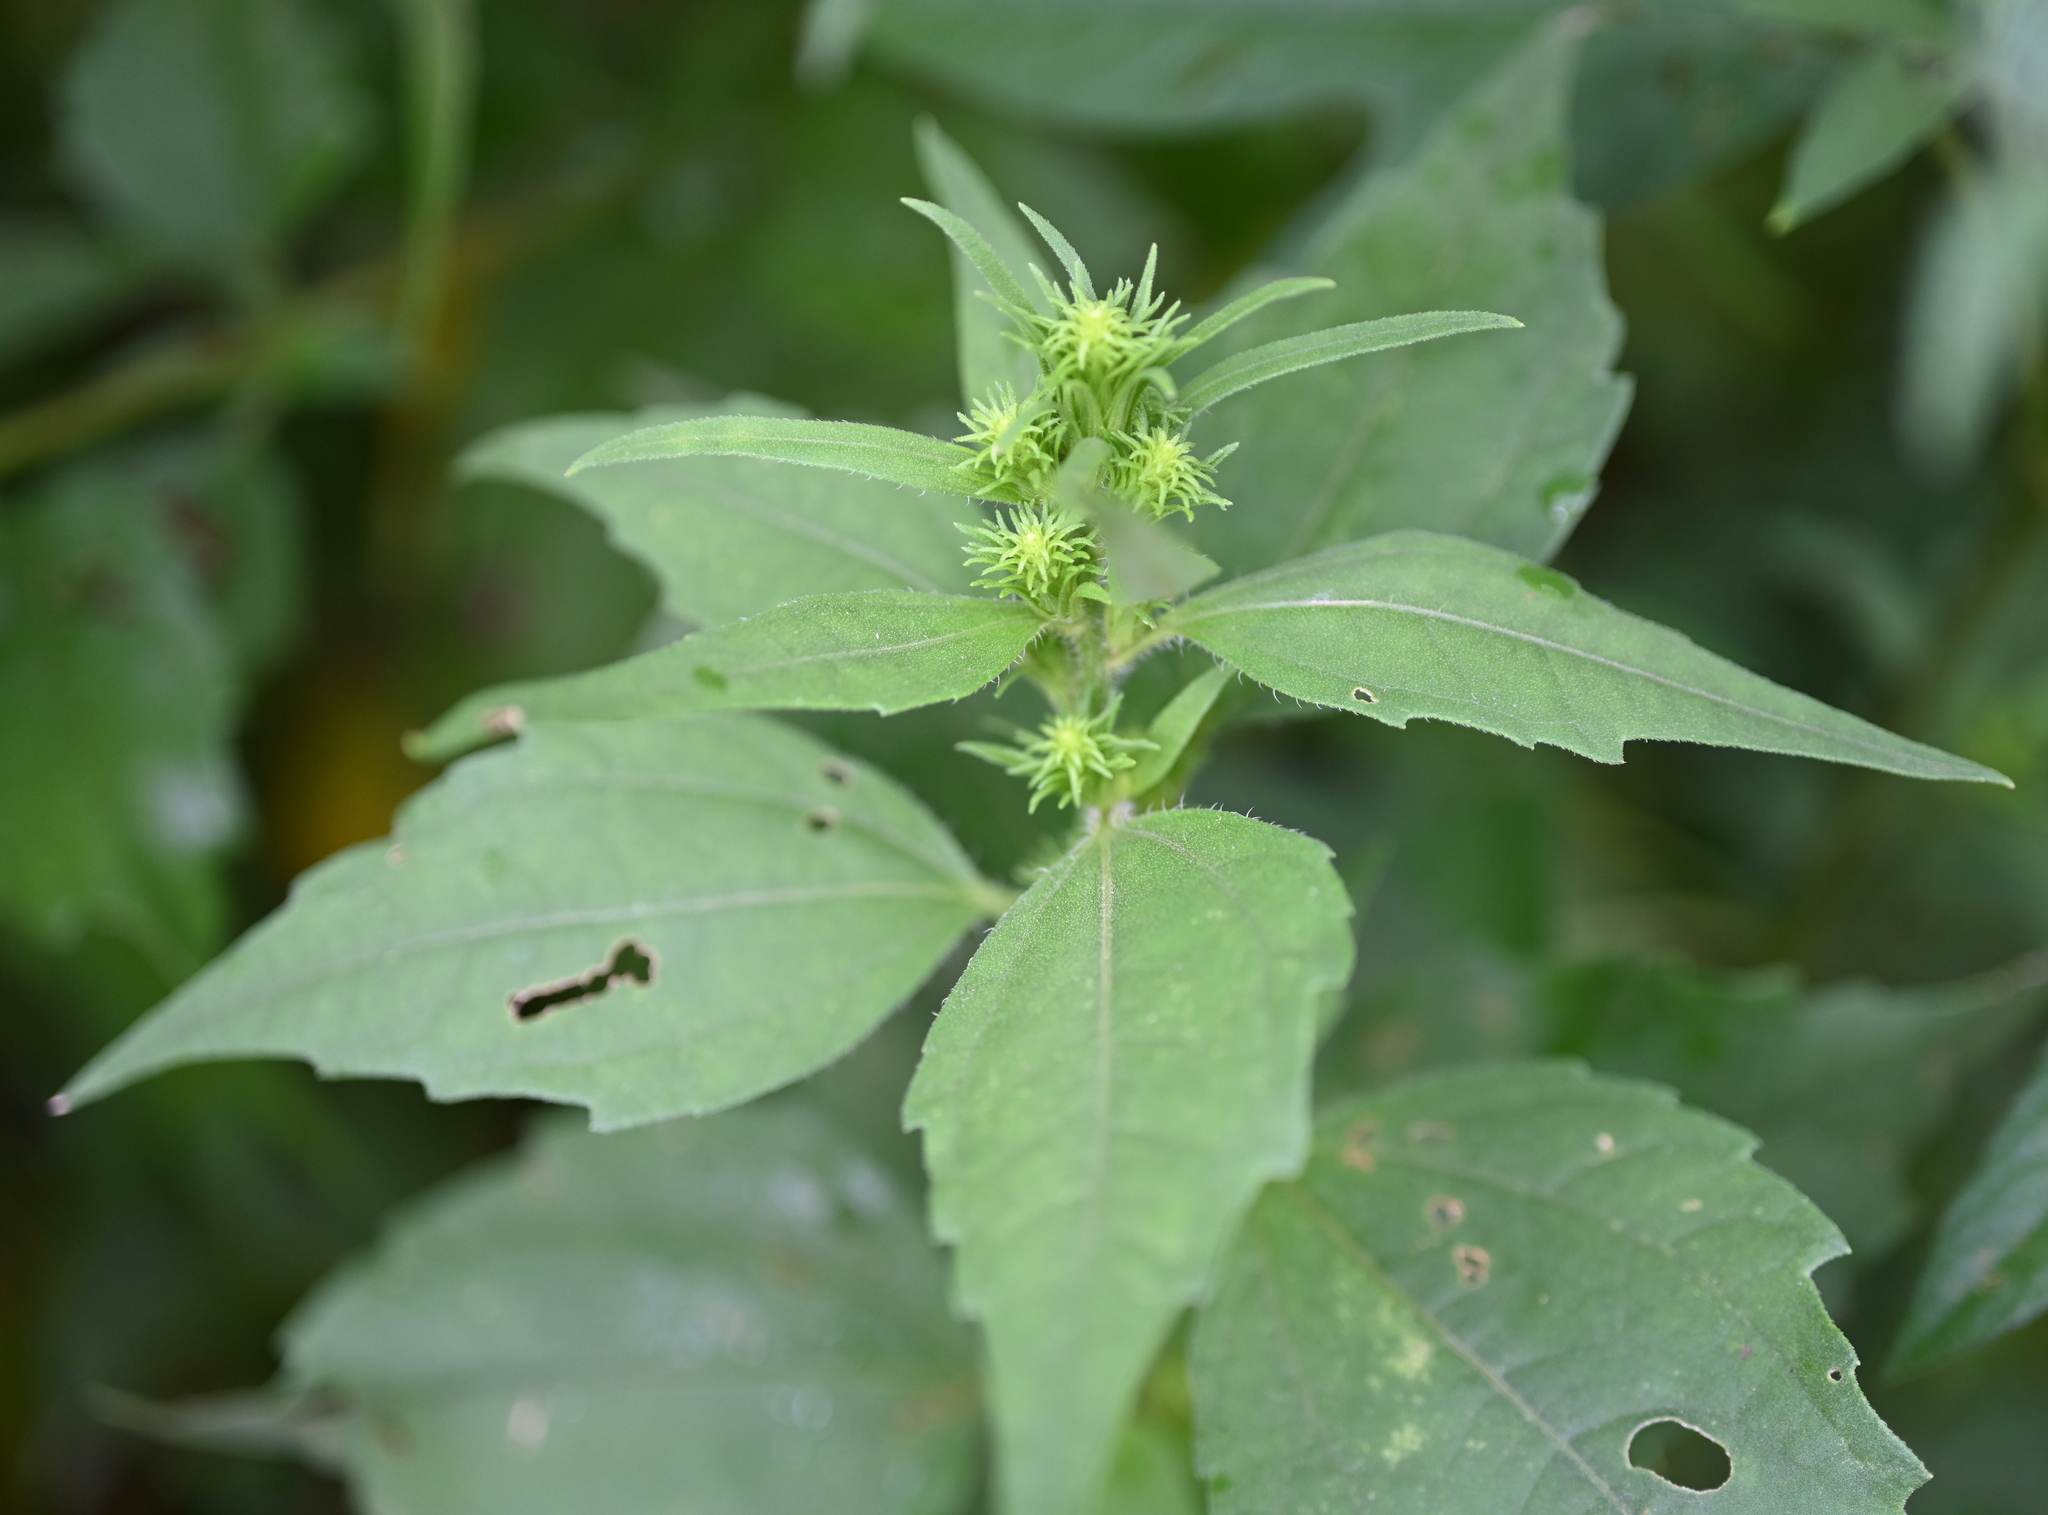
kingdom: Plantae
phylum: Tracheophyta
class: Magnoliopsida
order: Asterales
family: Asteraceae
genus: Iva
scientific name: Iva annua
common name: Marsh-elder
